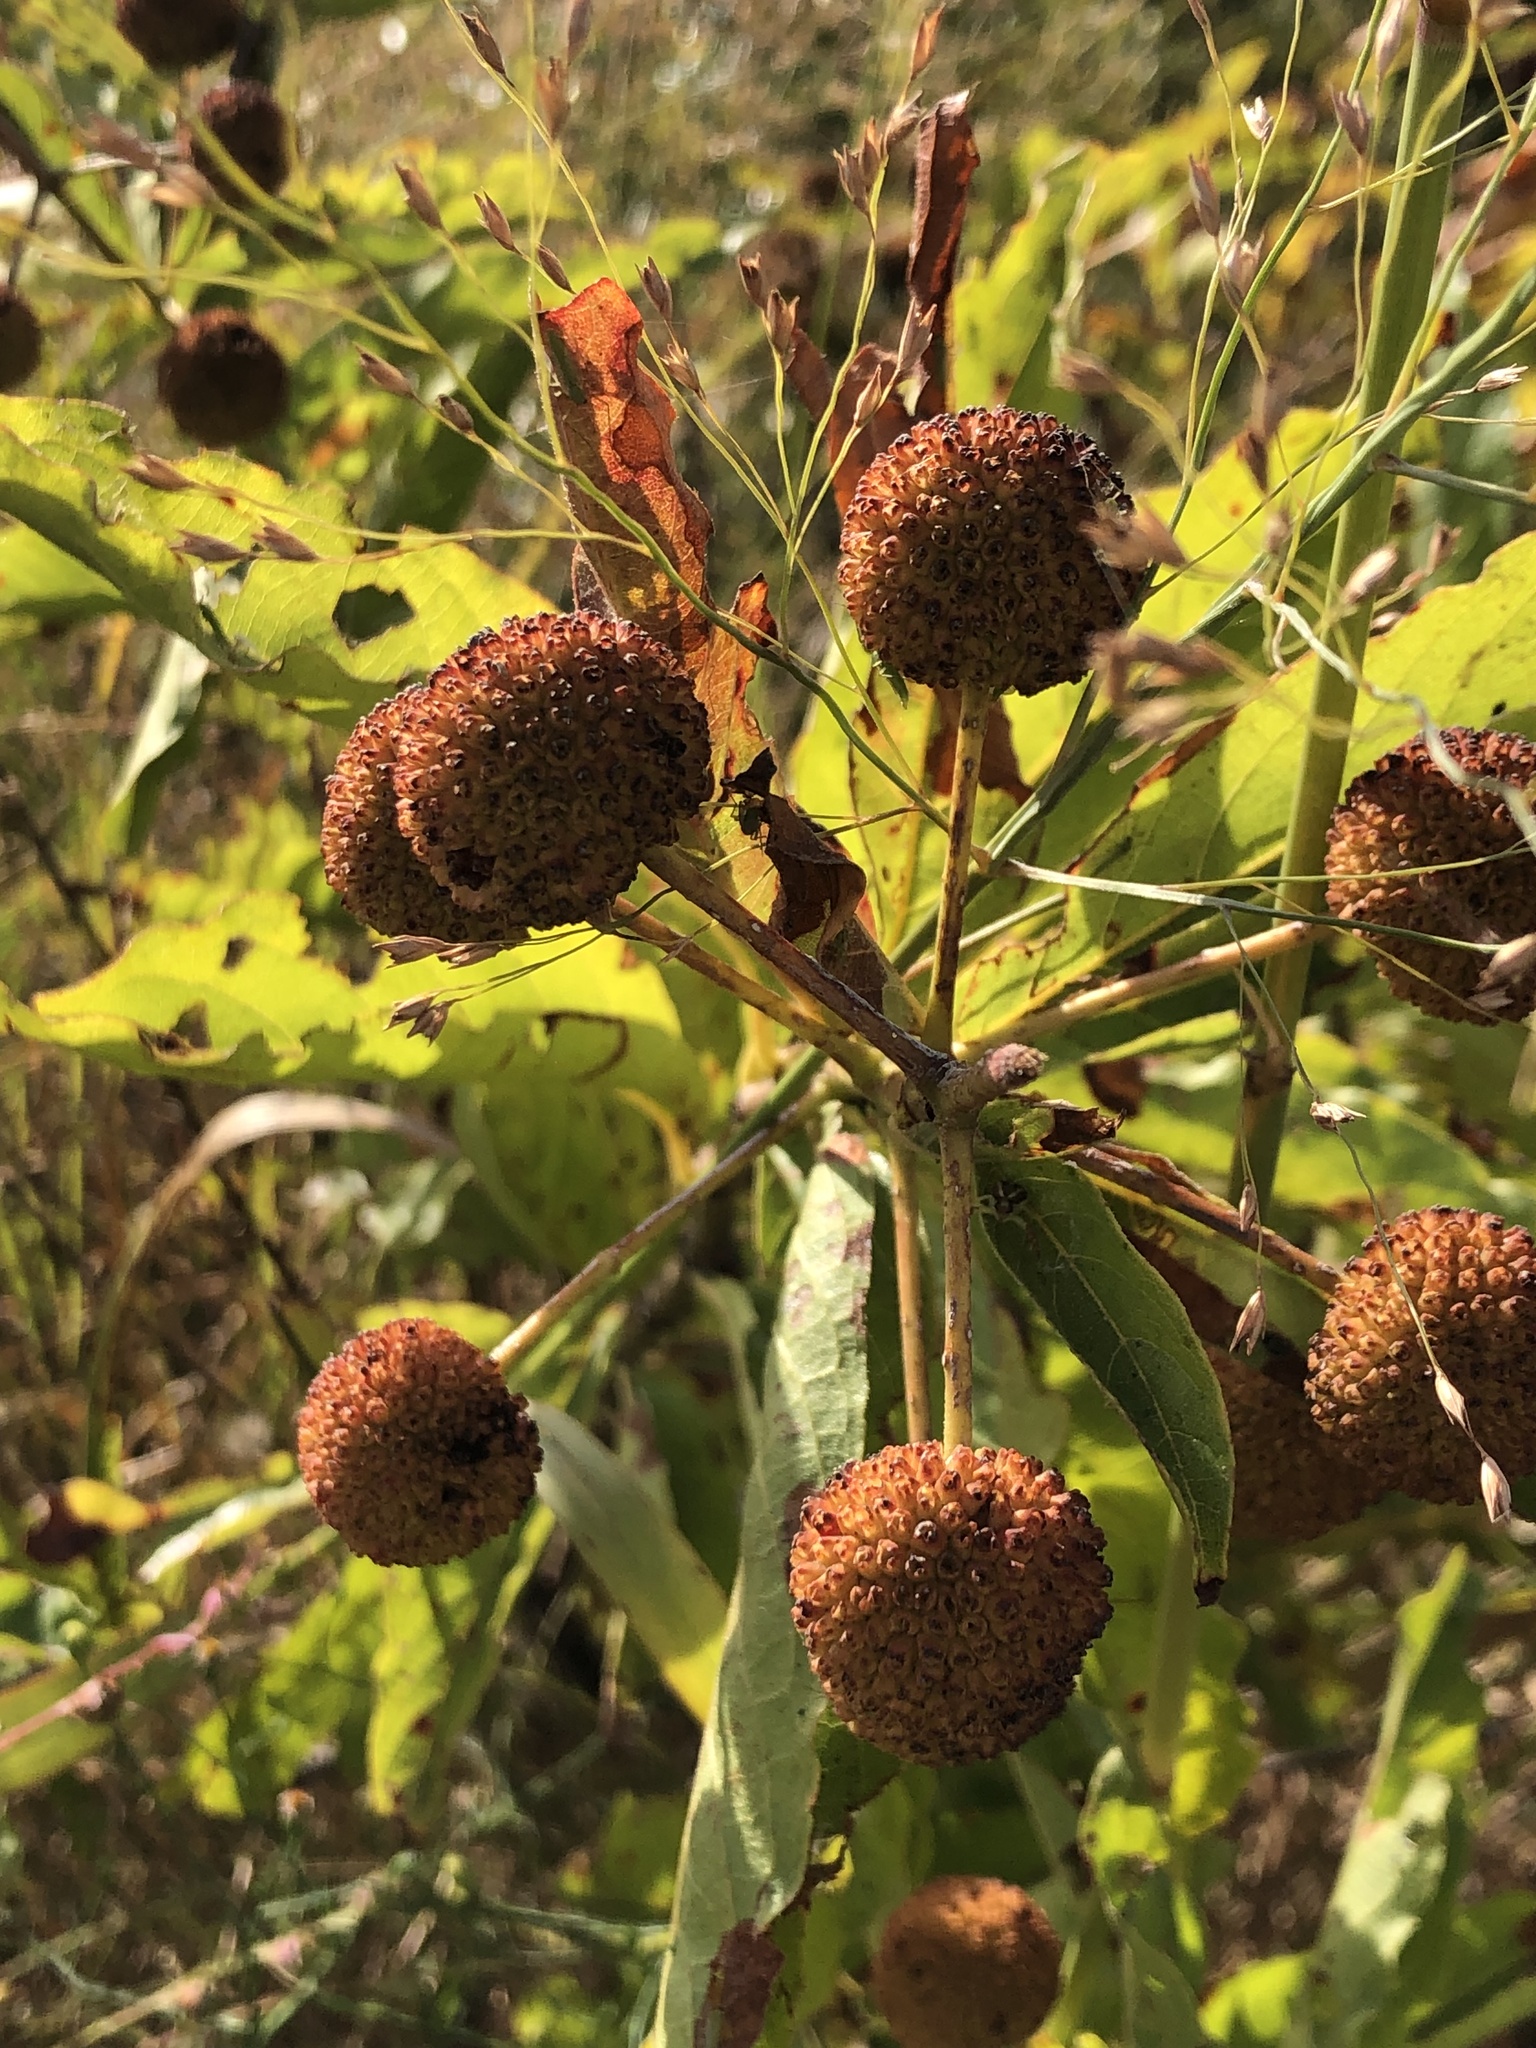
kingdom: Plantae
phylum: Tracheophyta
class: Magnoliopsida
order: Gentianales
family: Rubiaceae
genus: Cephalanthus
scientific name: Cephalanthus occidentalis
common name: Button-willow
